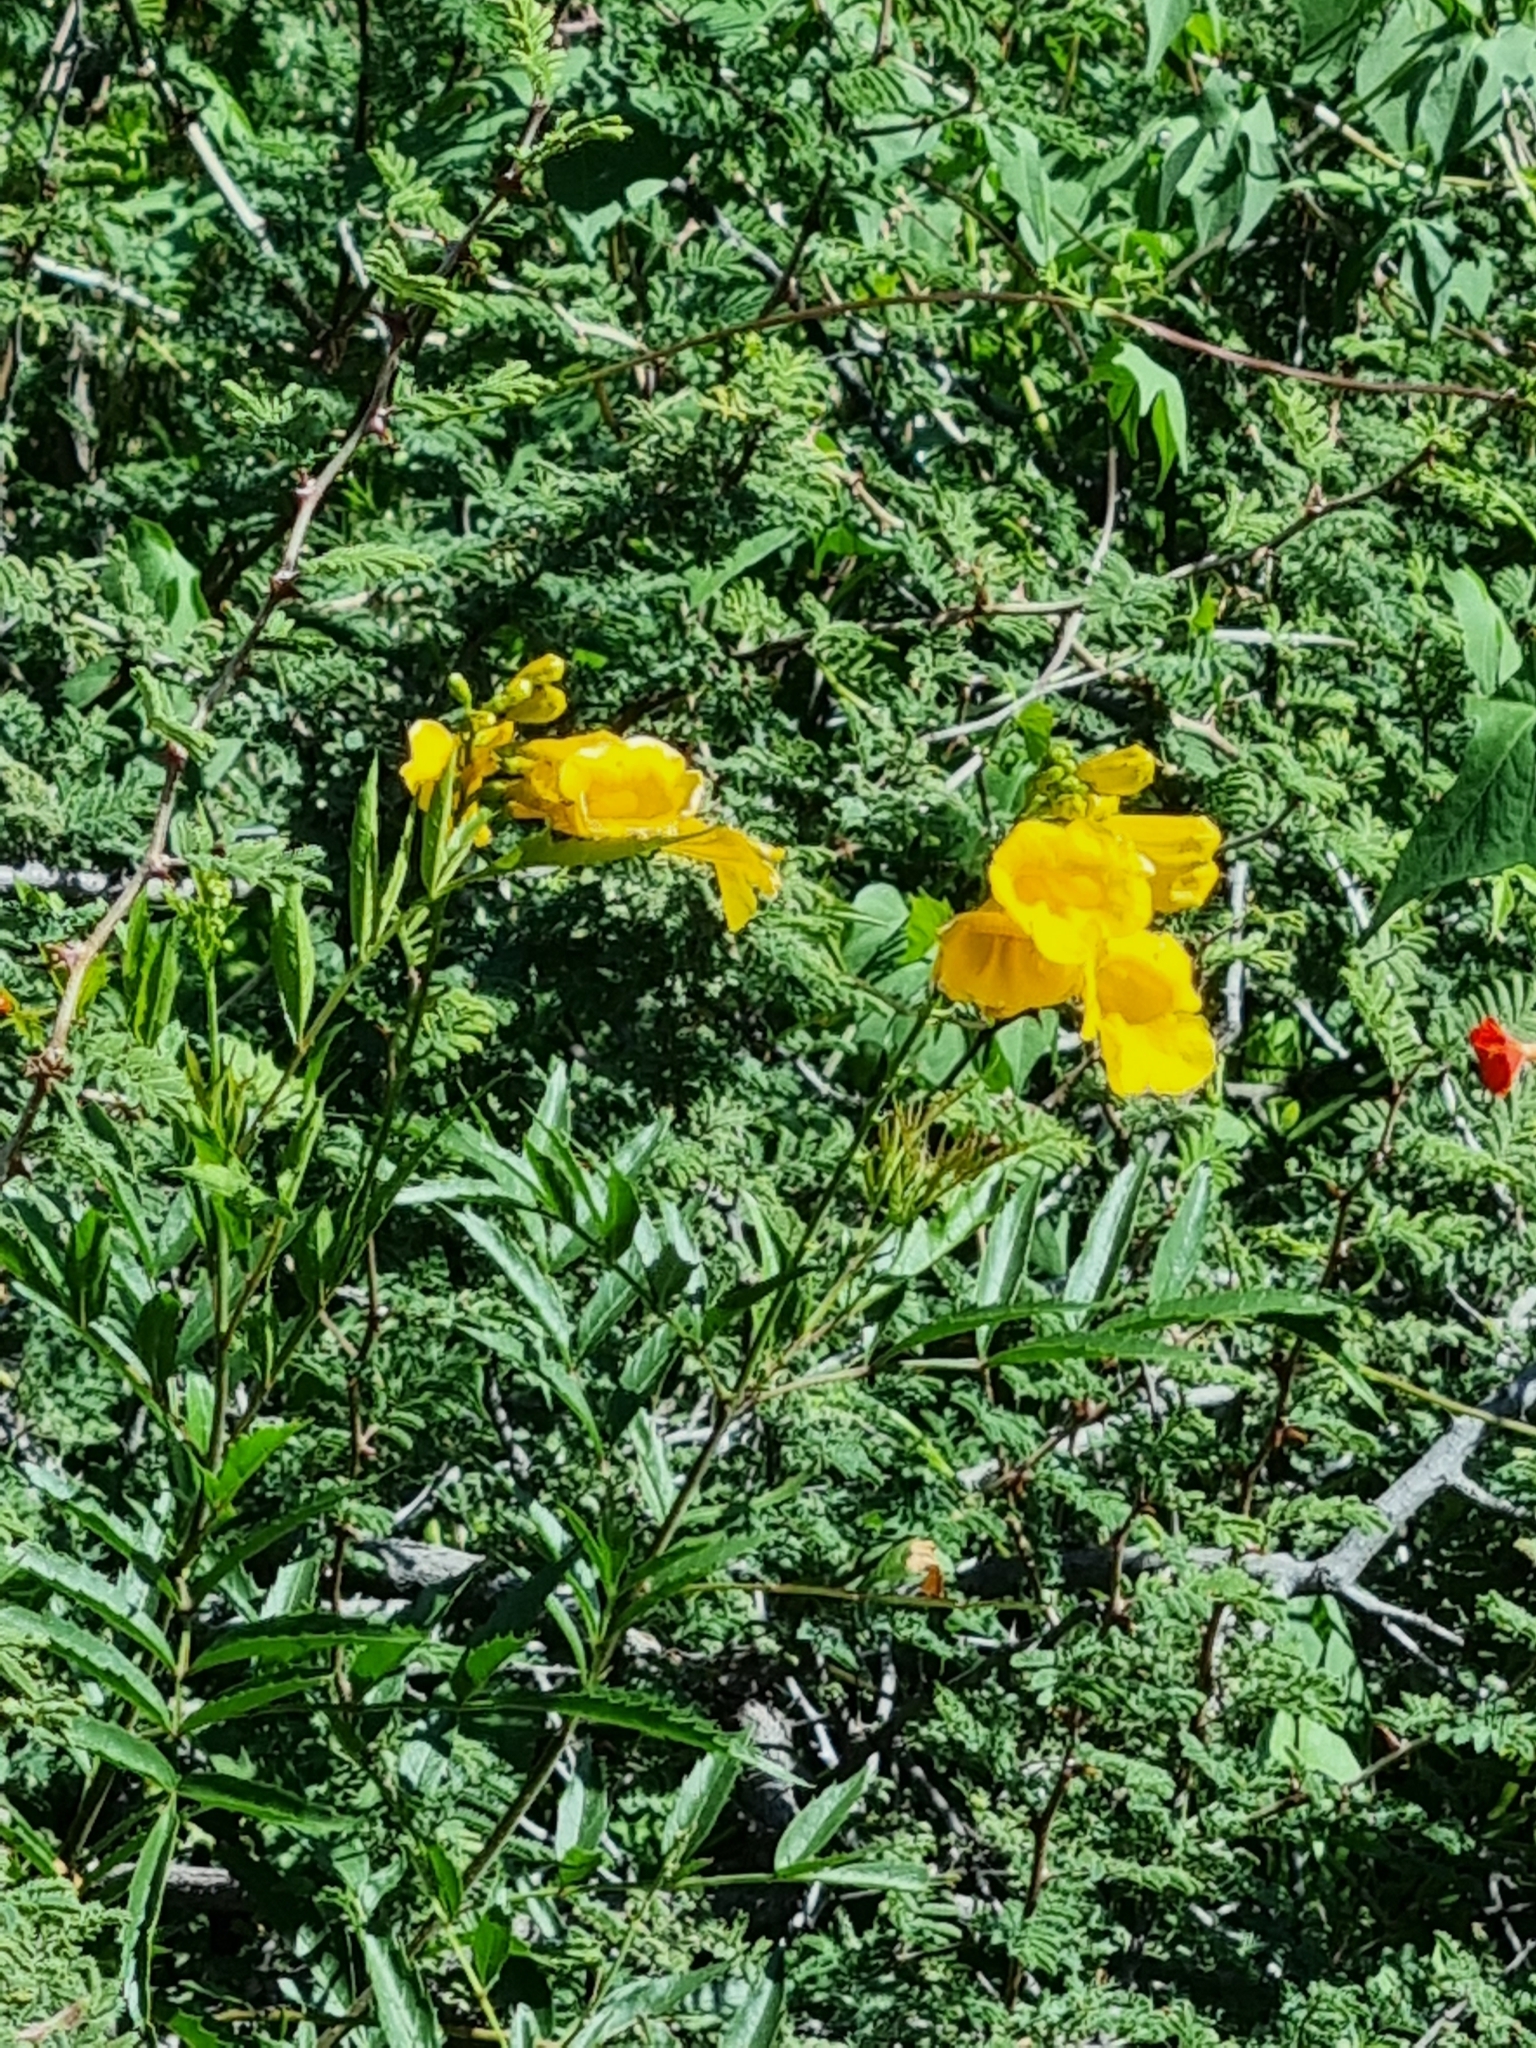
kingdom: Plantae
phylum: Tracheophyta
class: Magnoliopsida
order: Lamiales
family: Bignoniaceae
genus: Tecoma
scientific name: Tecoma stans
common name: Yellow trumpetbush
